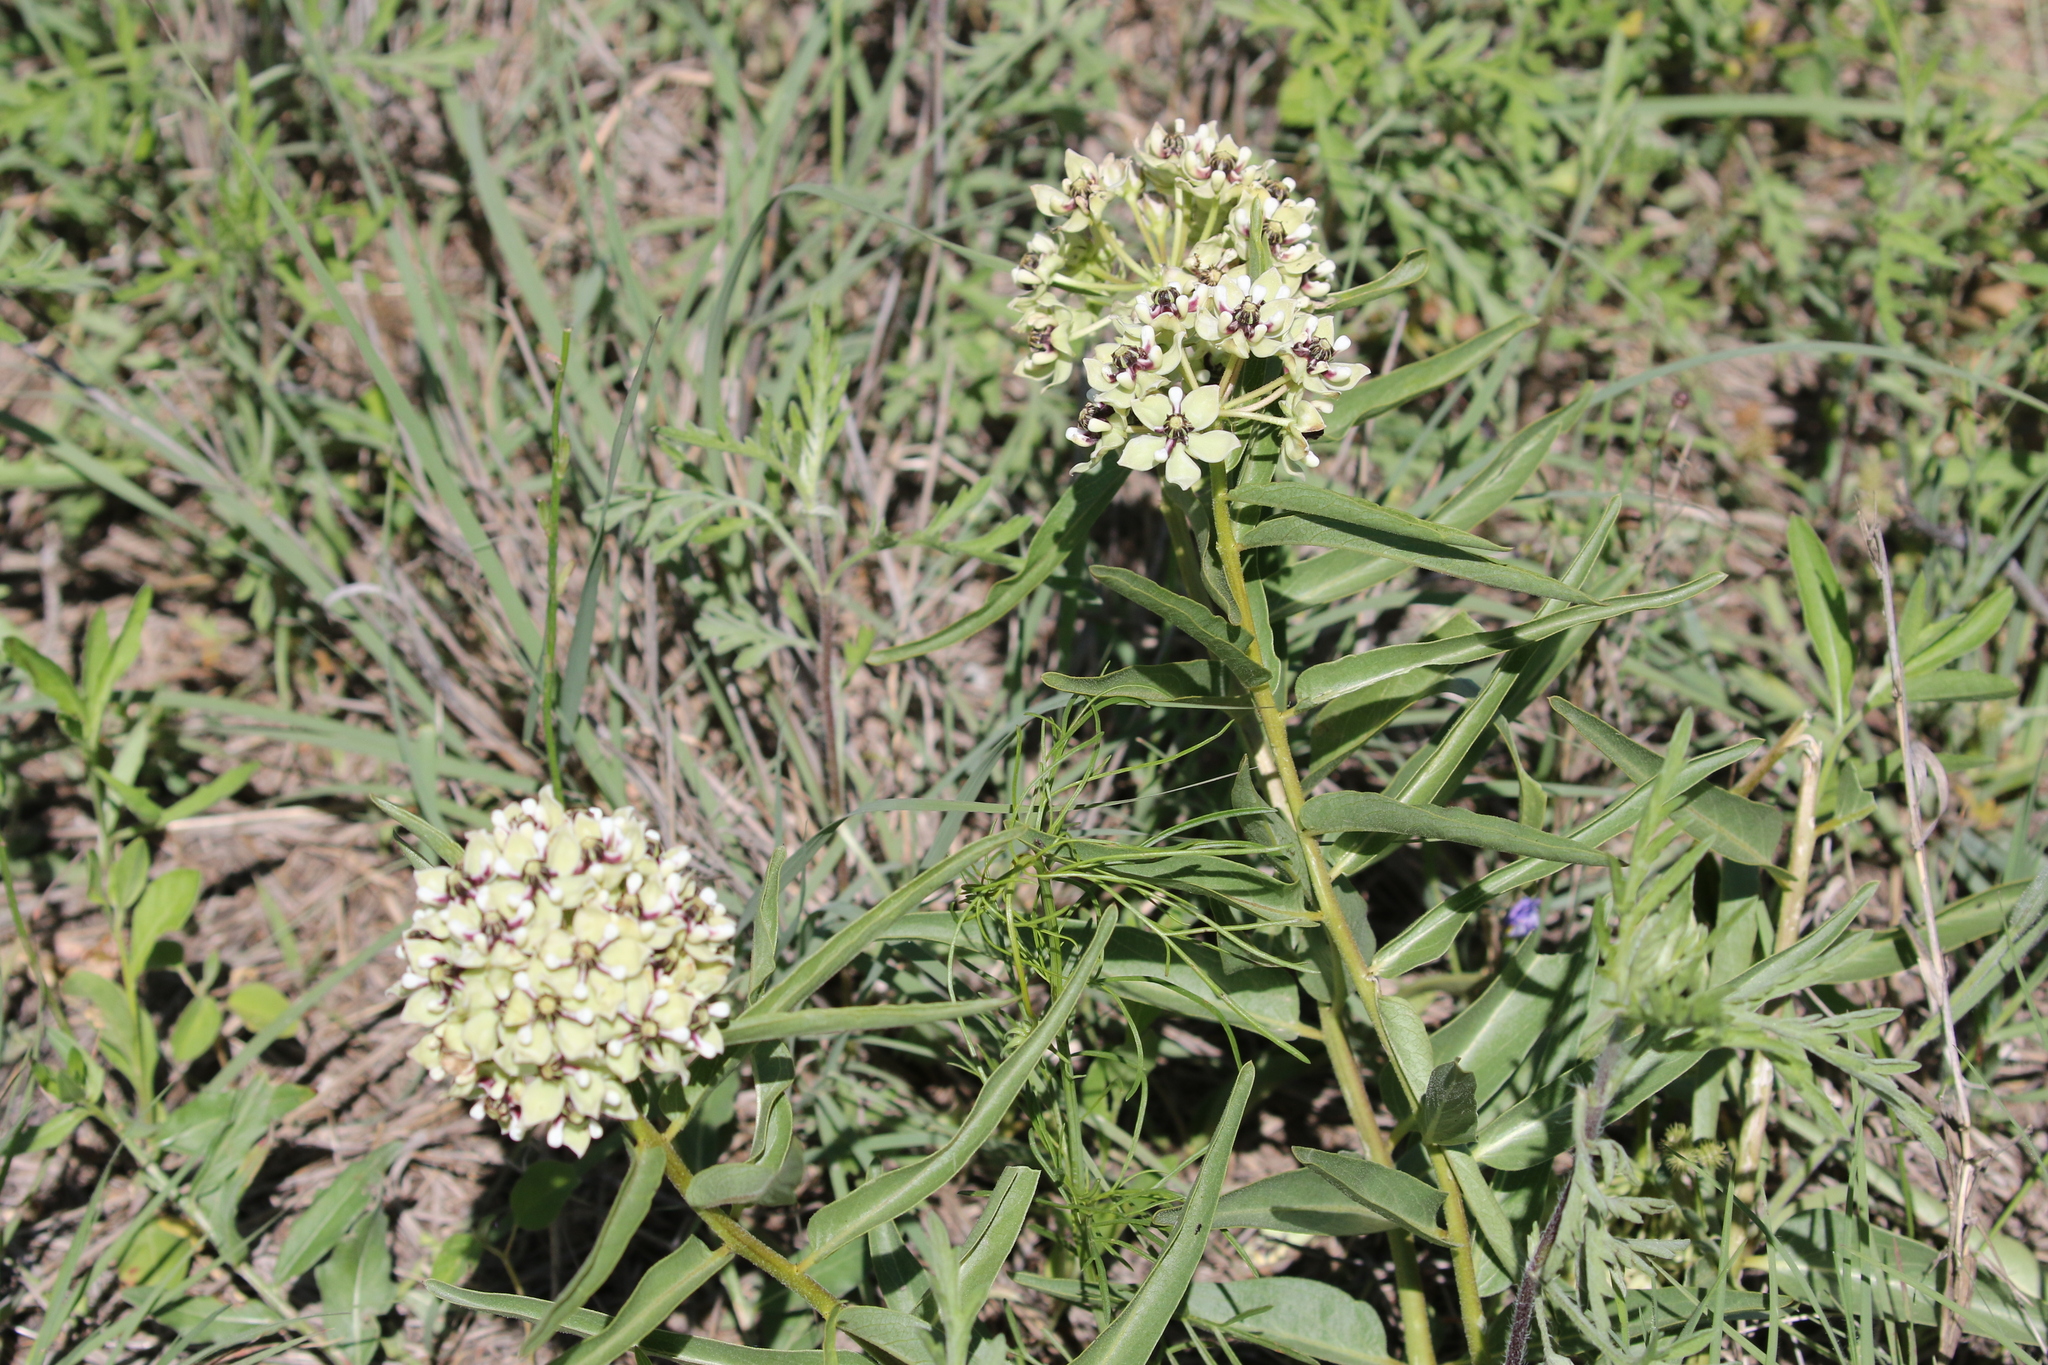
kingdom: Plantae
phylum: Tracheophyta
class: Magnoliopsida
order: Gentianales
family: Apocynaceae
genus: Asclepias
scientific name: Asclepias asperula
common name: Antelope horns
